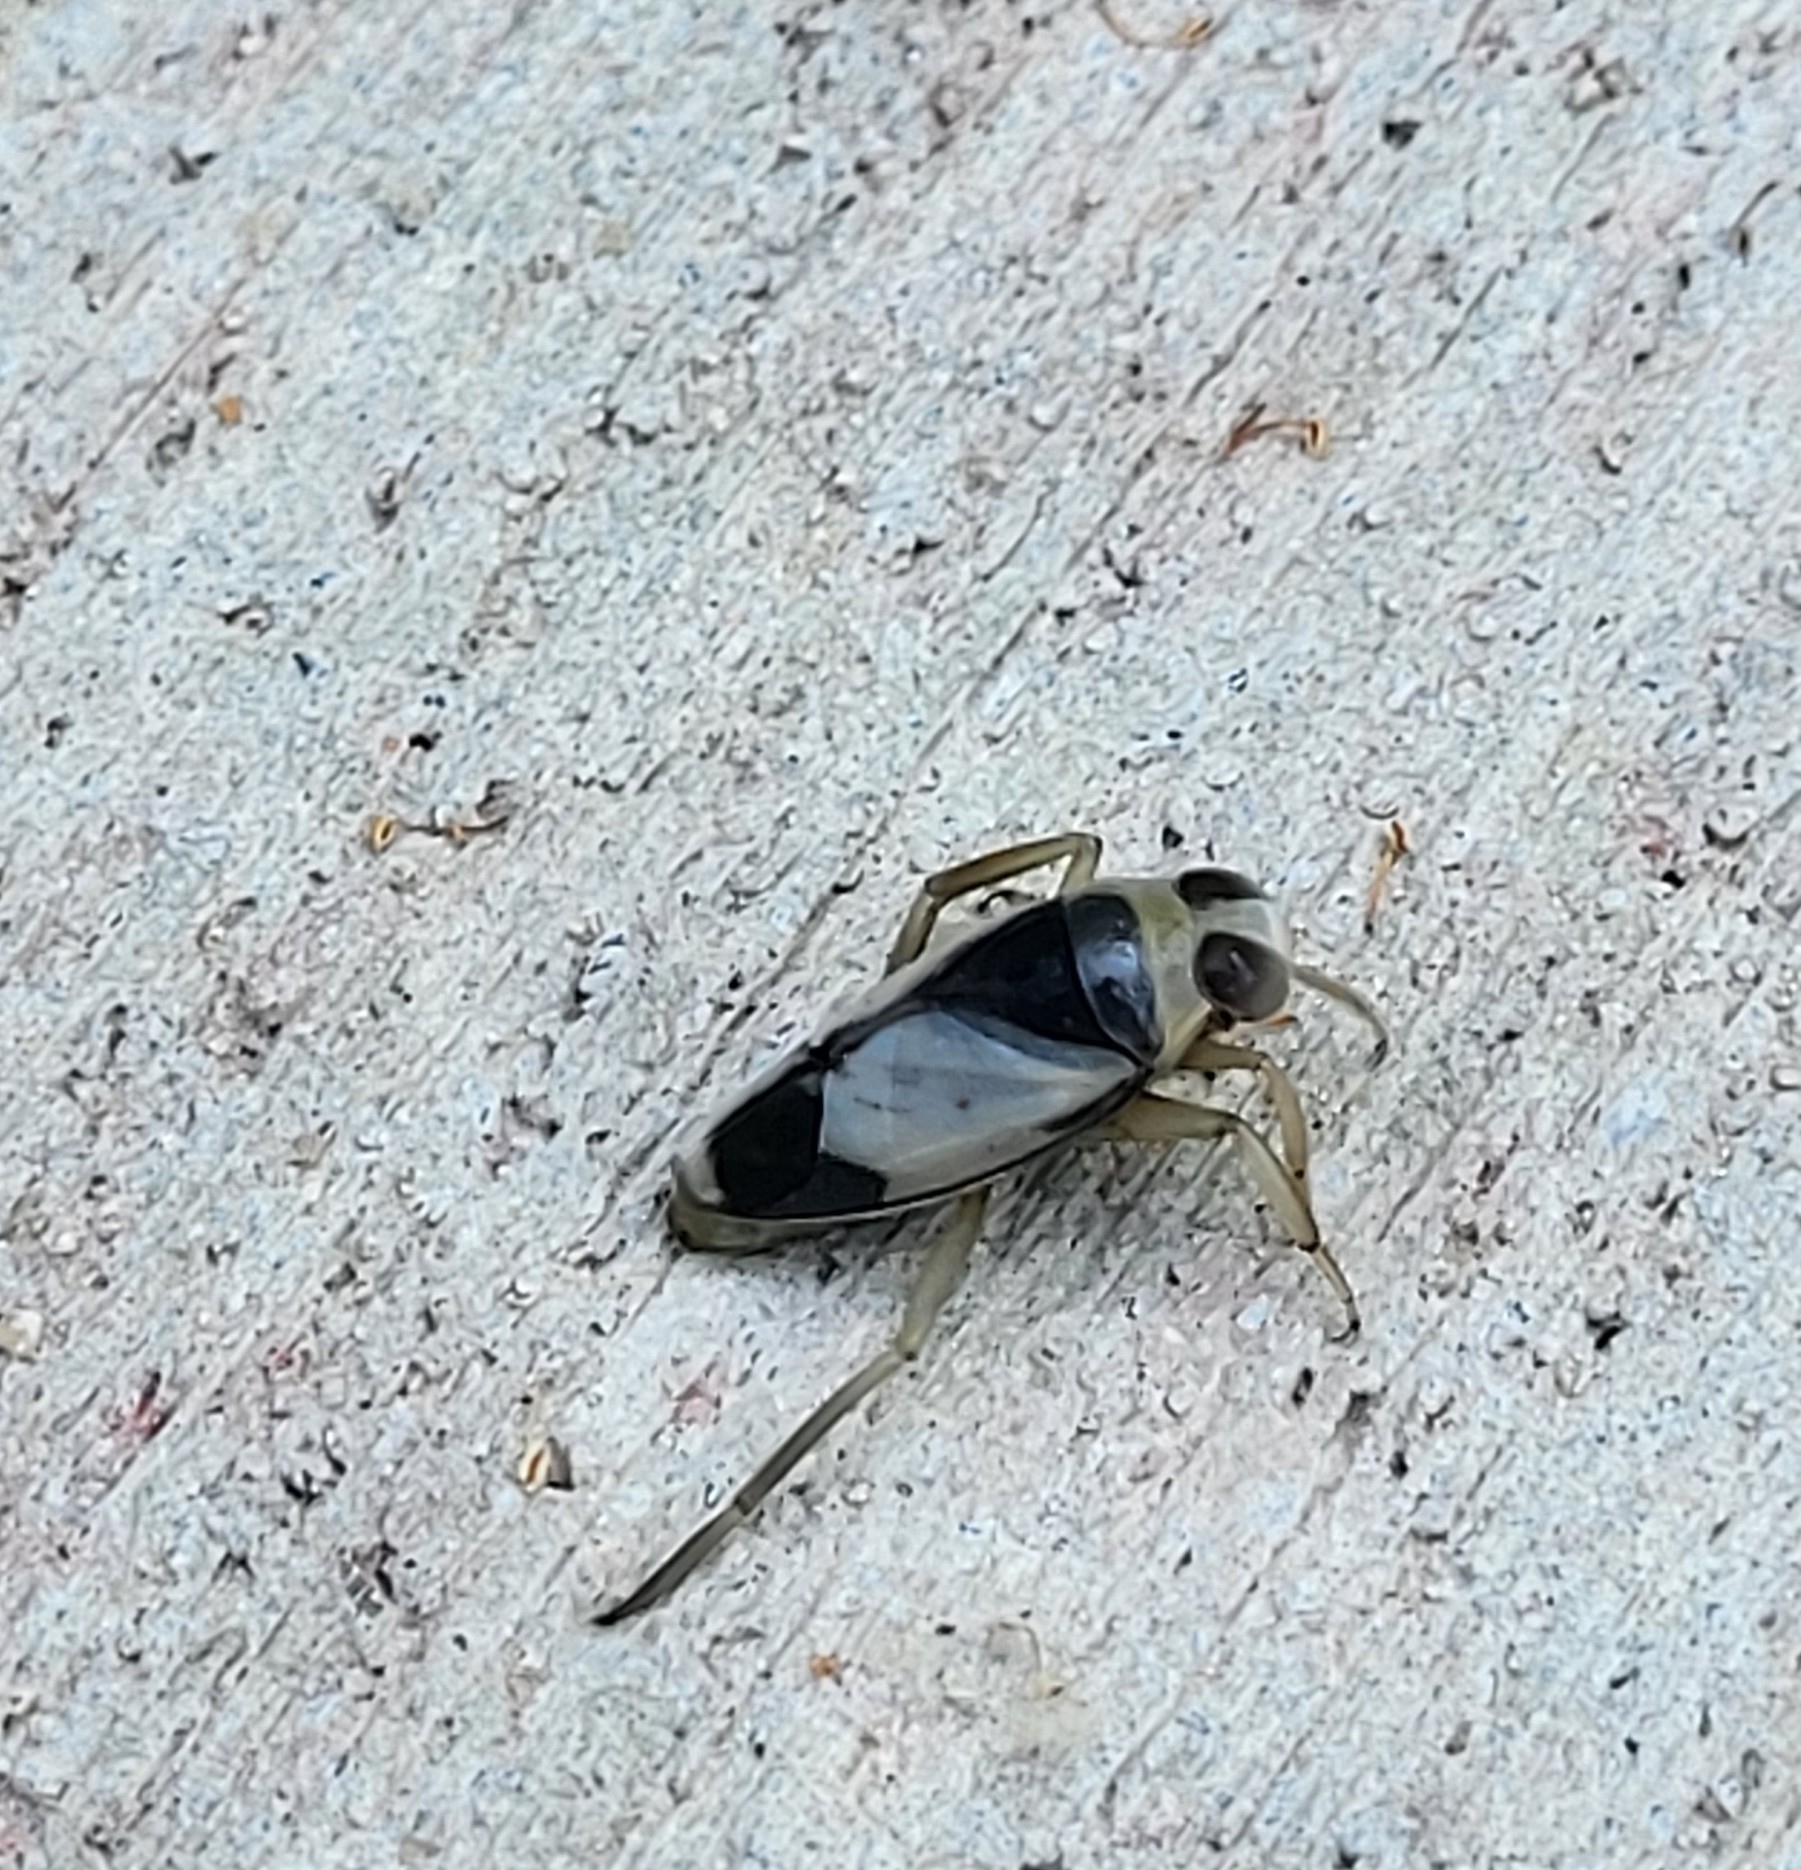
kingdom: Animalia
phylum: Arthropoda
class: Insecta
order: Hemiptera
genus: Paranecta
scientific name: Paranecta
